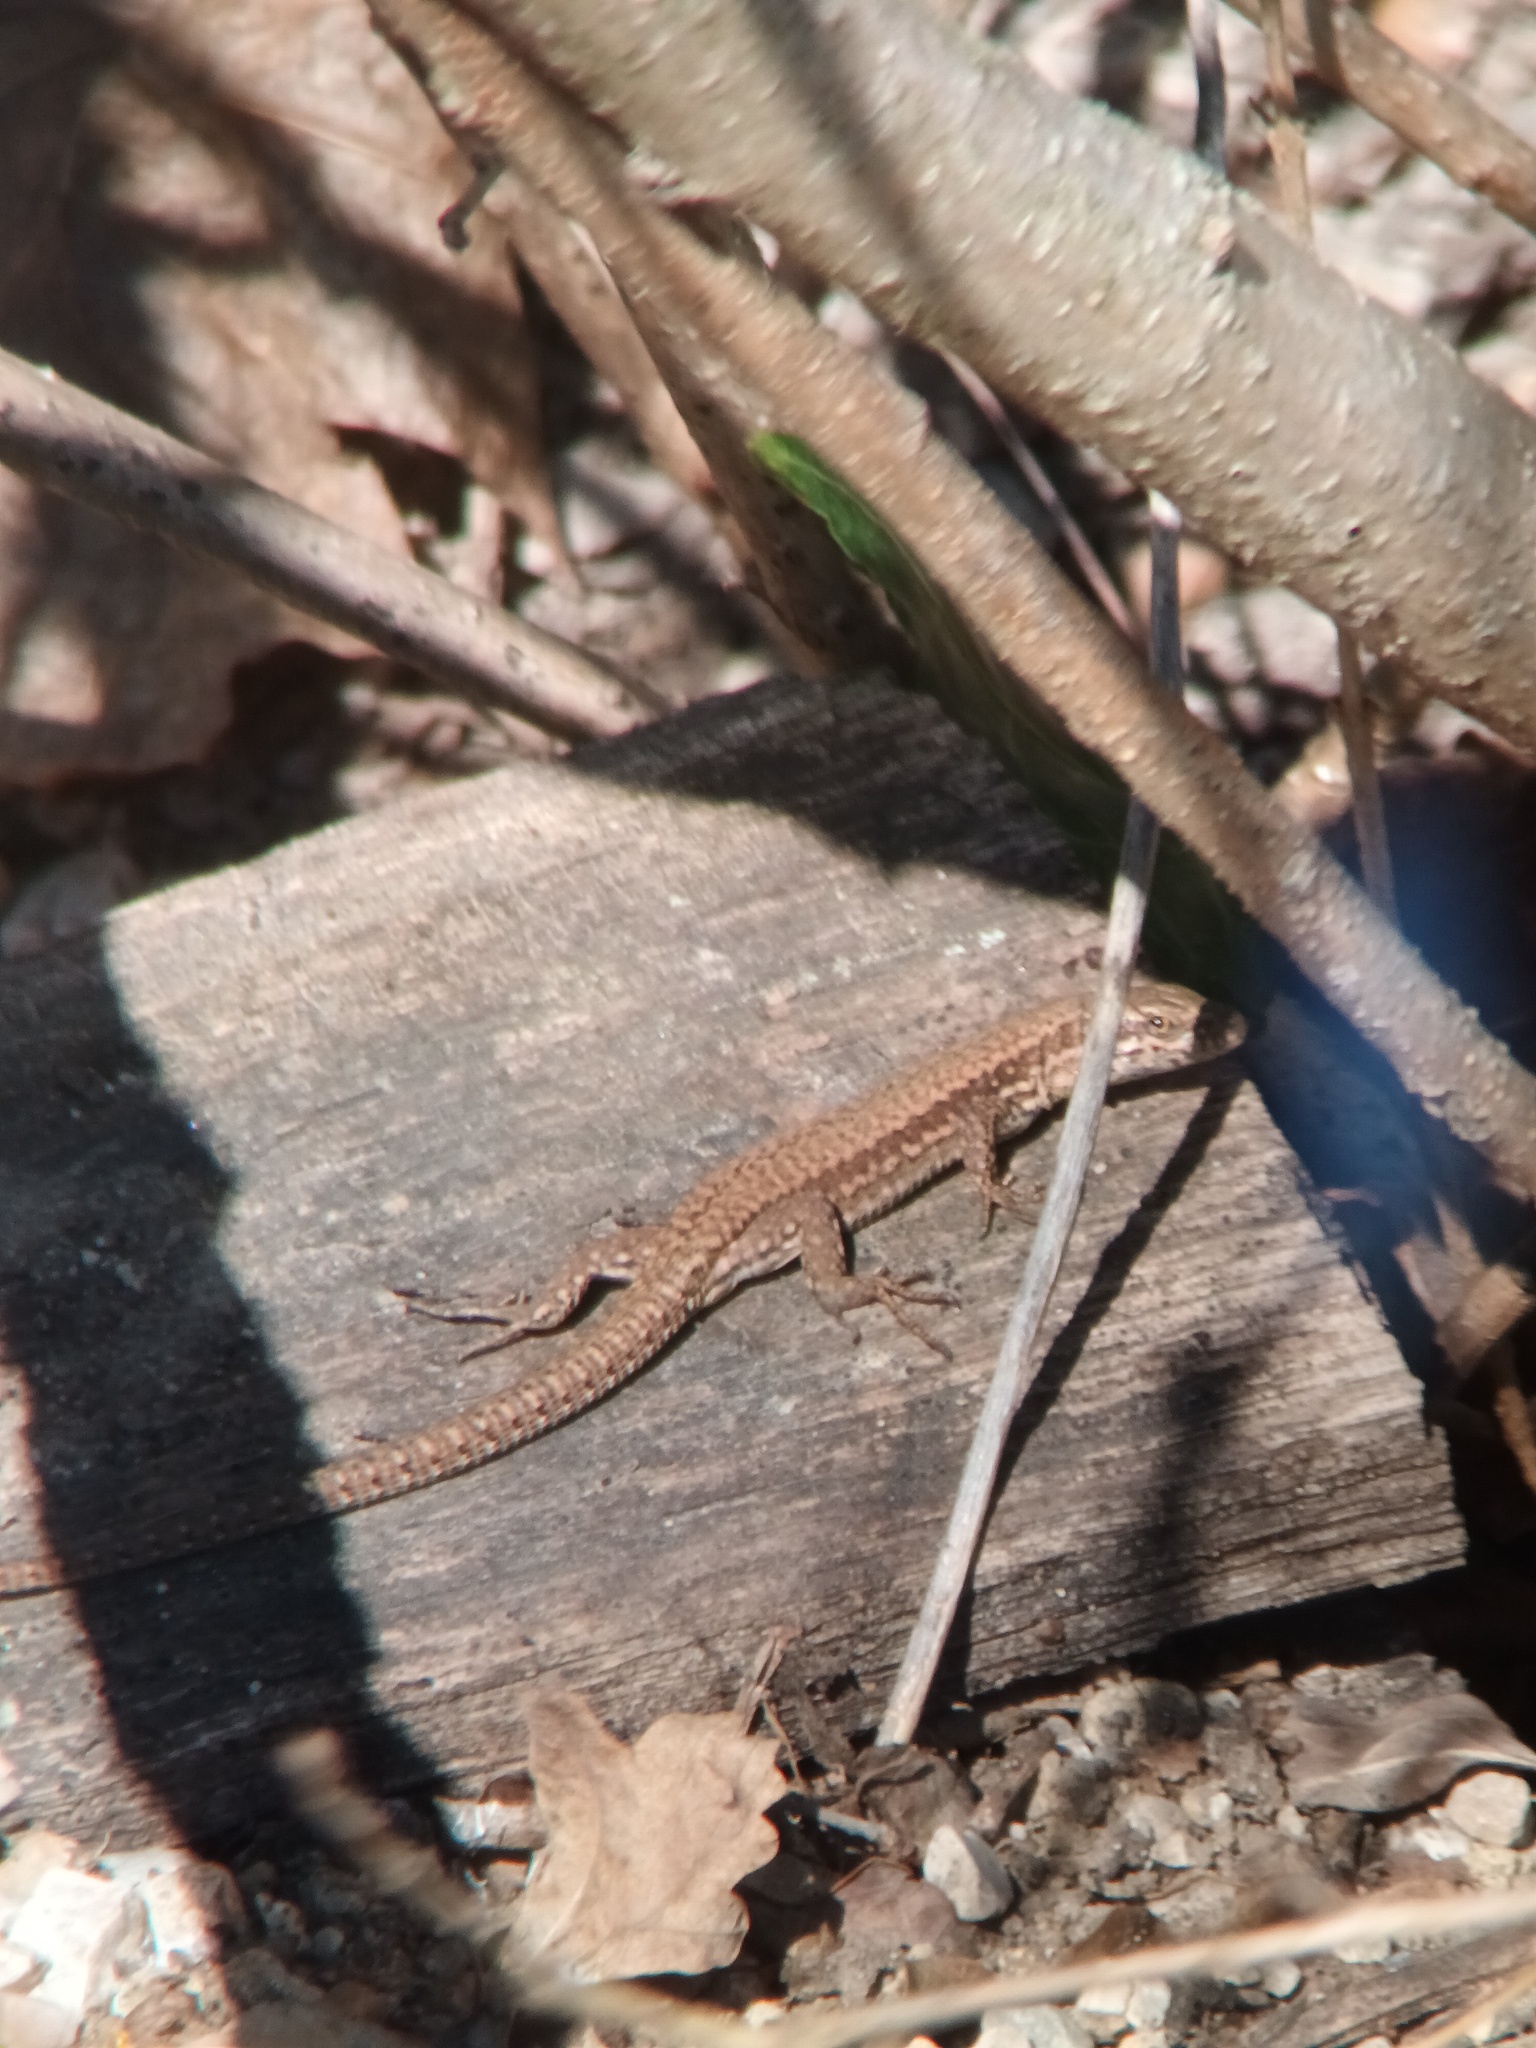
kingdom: Animalia
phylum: Chordata
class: Squamata
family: Lacertidae
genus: Podarcis
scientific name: Podarcis muralis
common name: Common wall lizard
